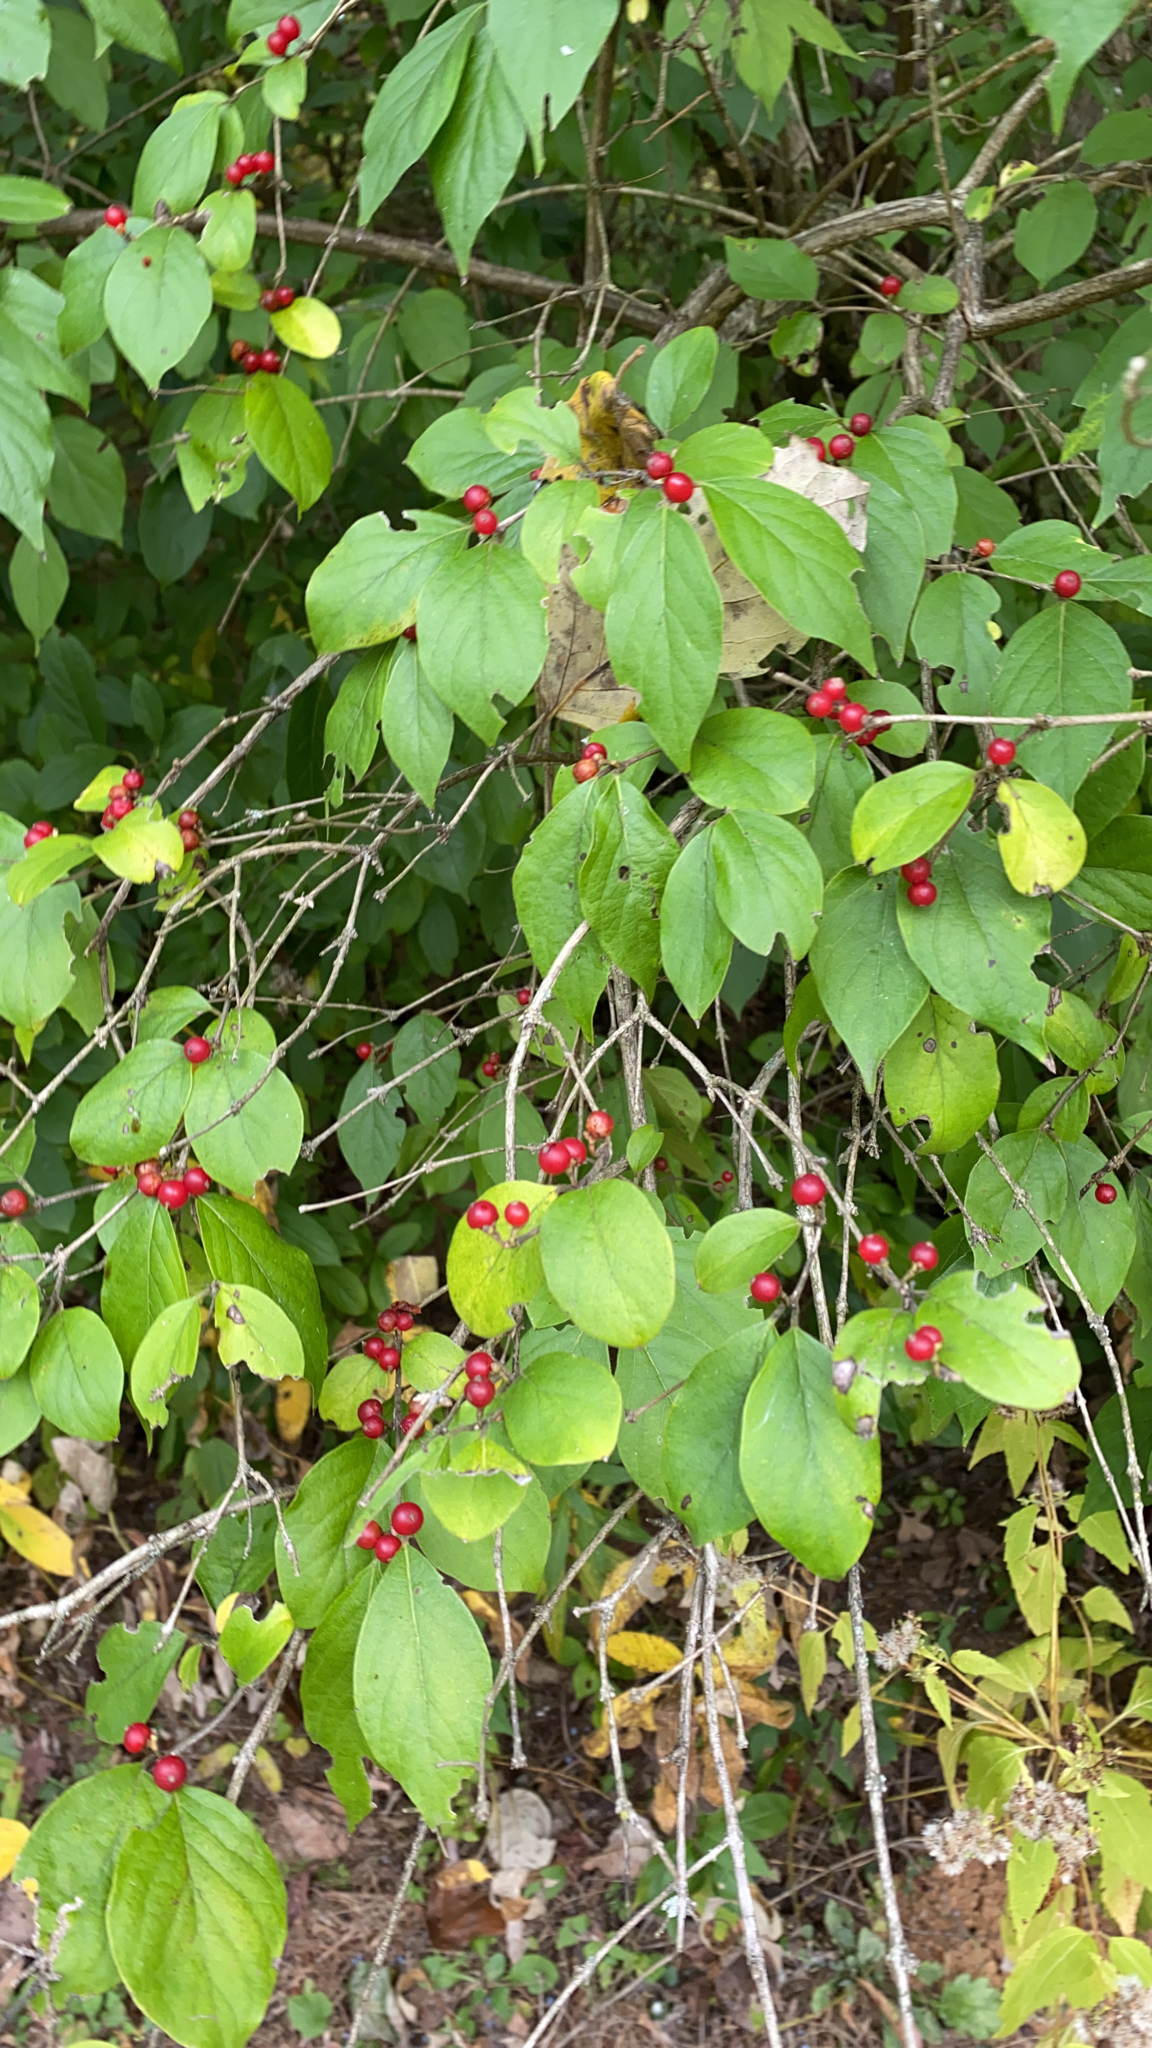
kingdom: Plantae
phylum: Tracheophyta
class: Magnoliopsida
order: Dipsacales
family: Caprifoliaceae
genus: Lonicera
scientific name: Lonicera maackii
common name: Amur honeysuckle
